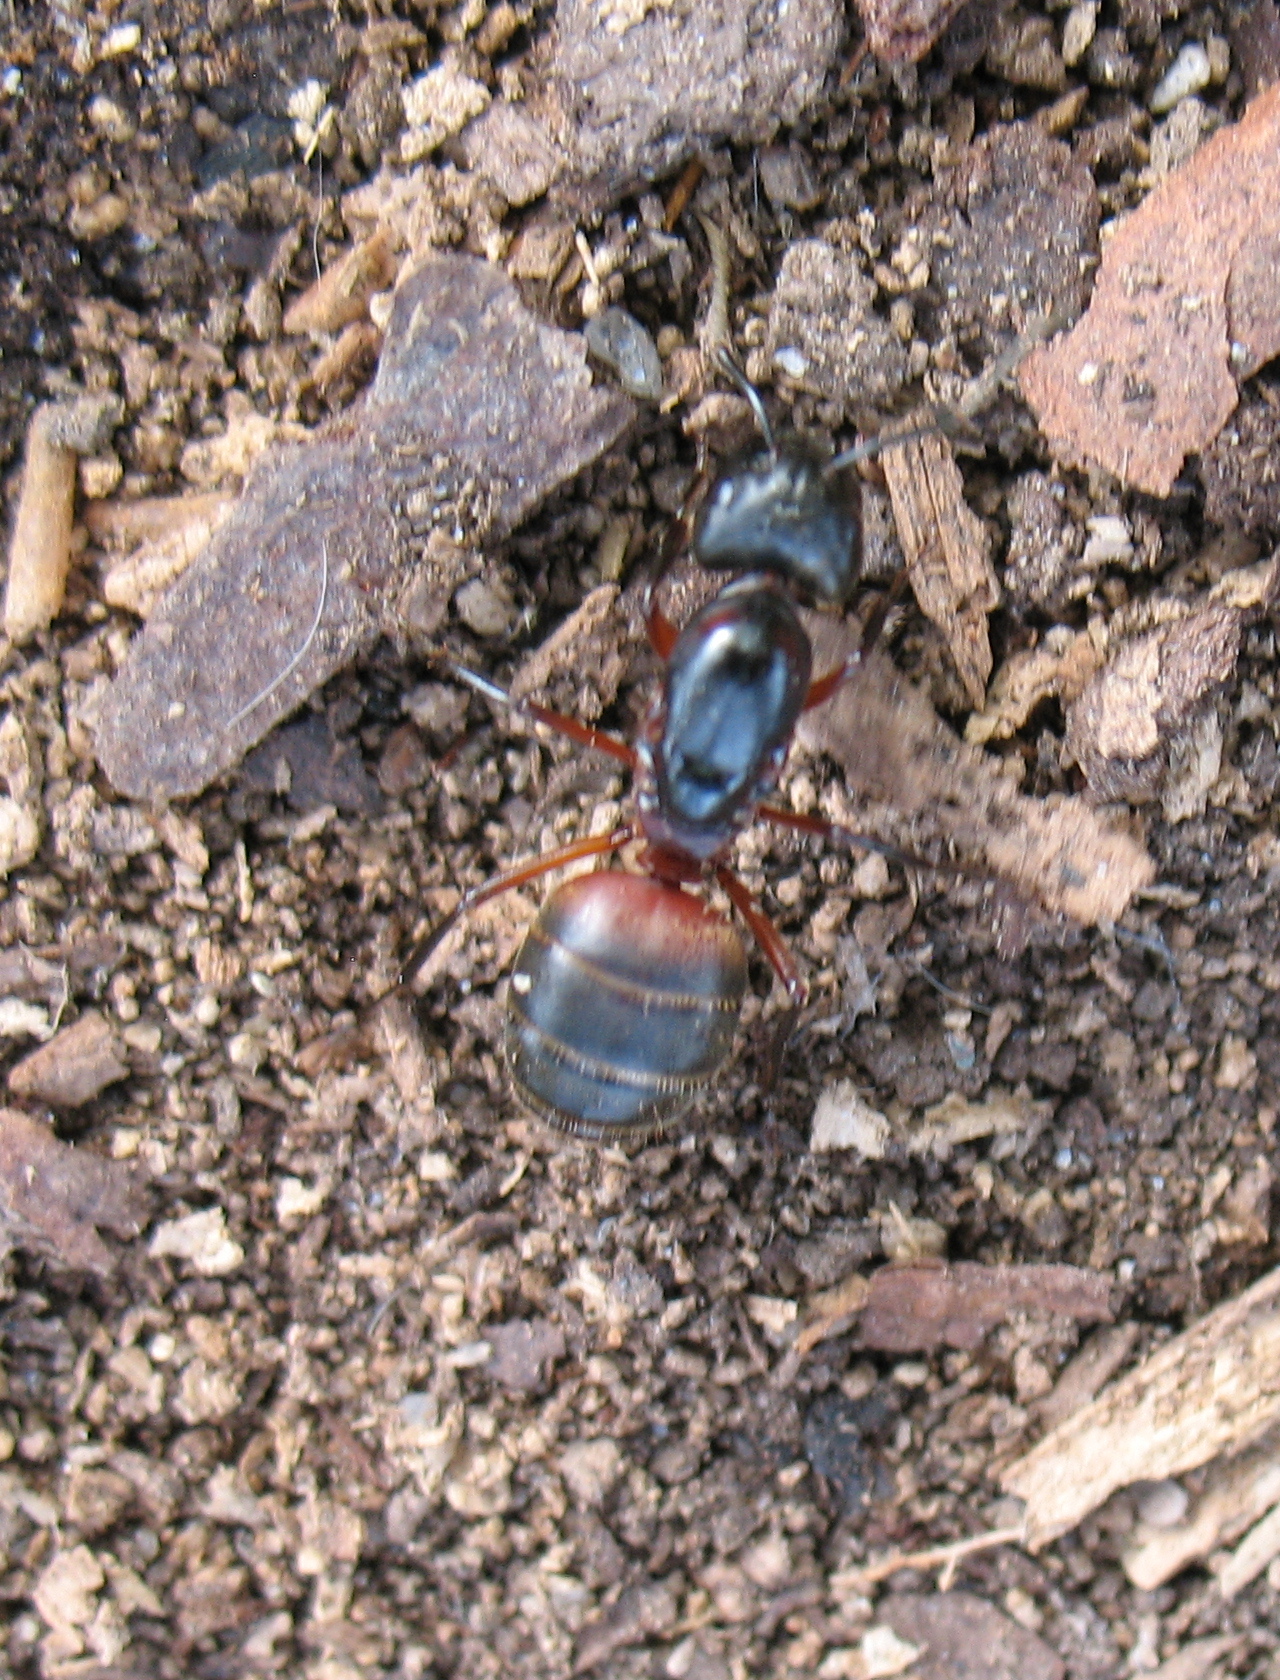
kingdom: Animalia
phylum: Arthropoda
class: Insecta
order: Hymenoptera
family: Formicidae
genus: Camponotus
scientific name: Camponotus chromaiodes
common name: Red carpenter ant
